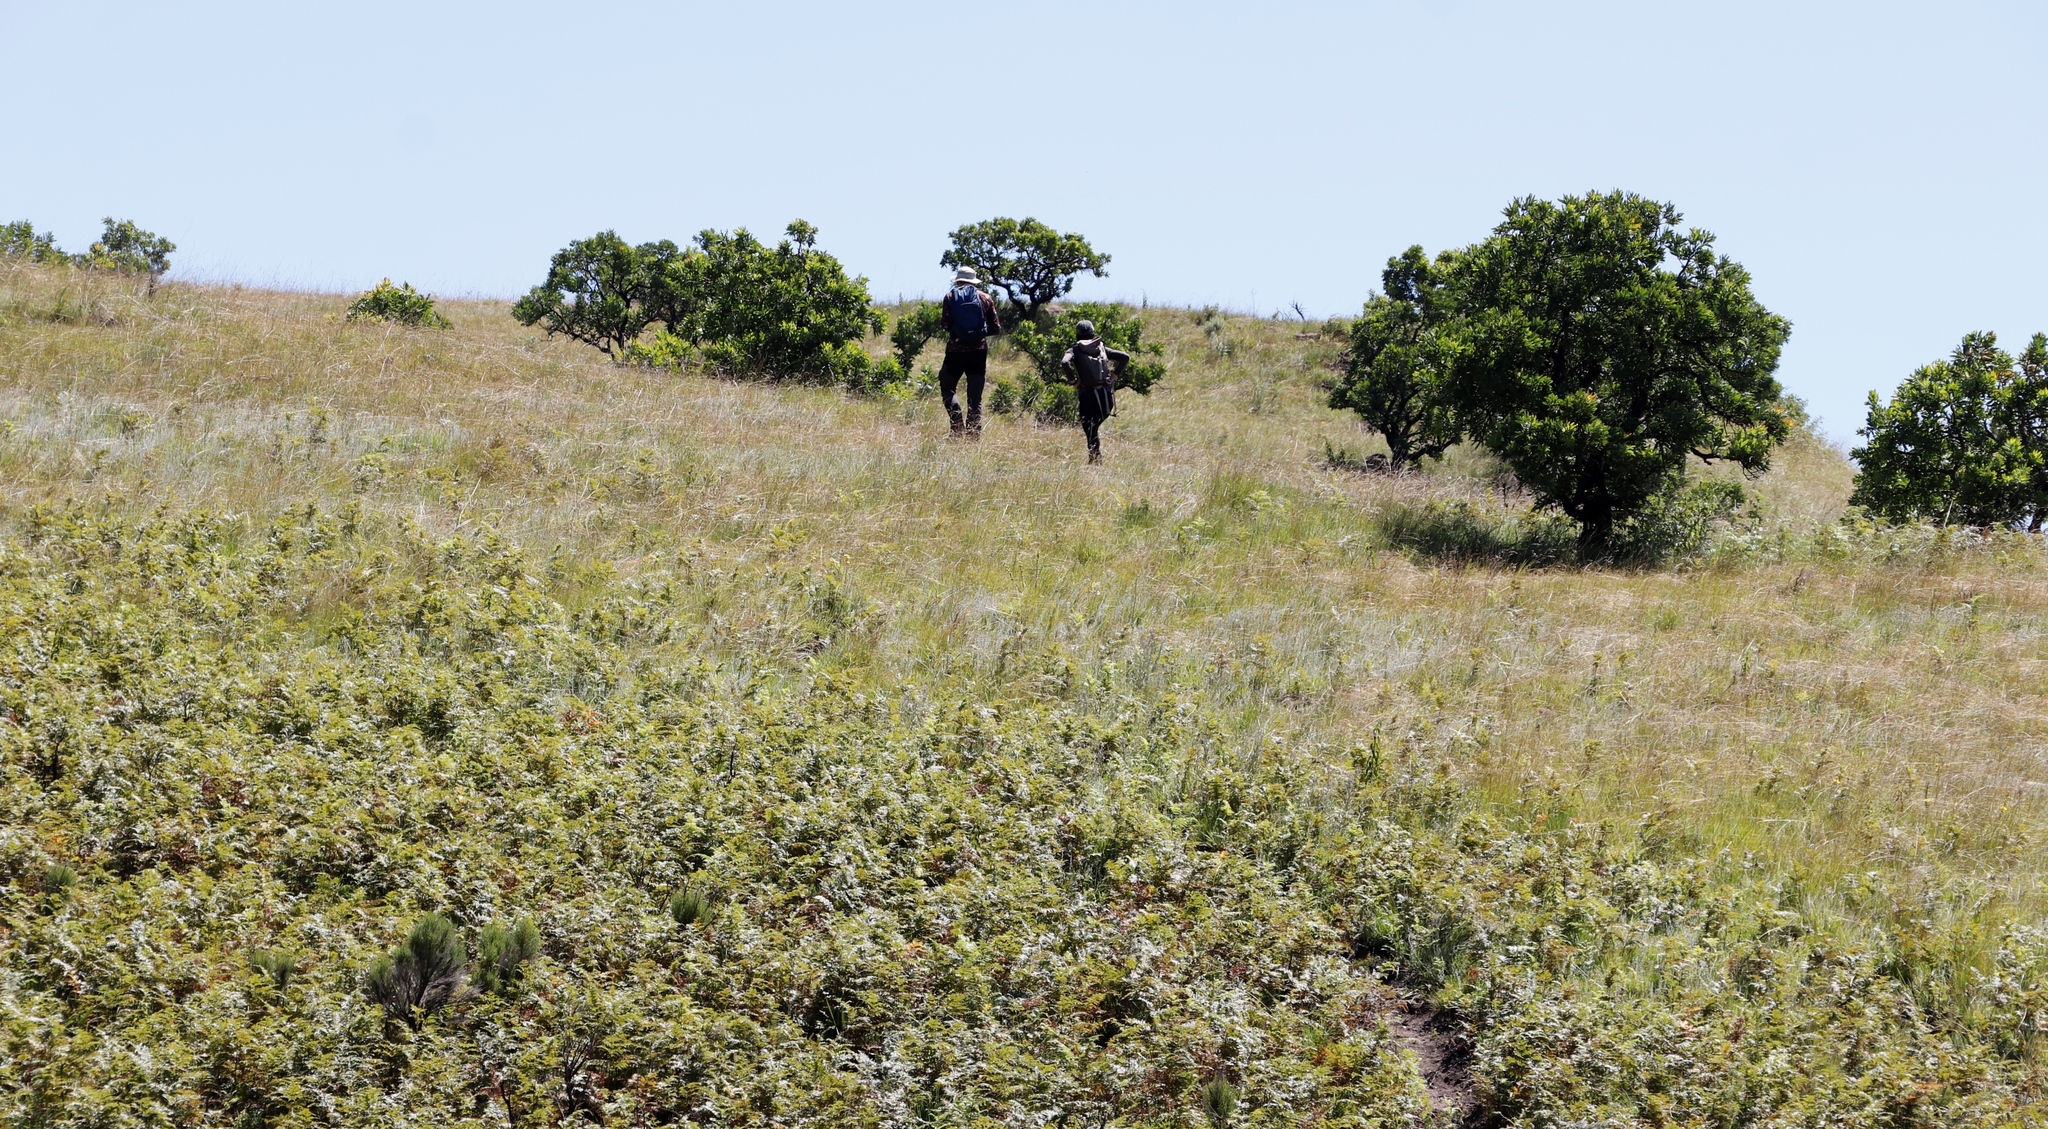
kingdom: Plantae
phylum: Tracheophyta
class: Magnoliopsida
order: Proteales
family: Proteaceae
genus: Protea
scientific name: Protea caffra
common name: Common sugarbush
